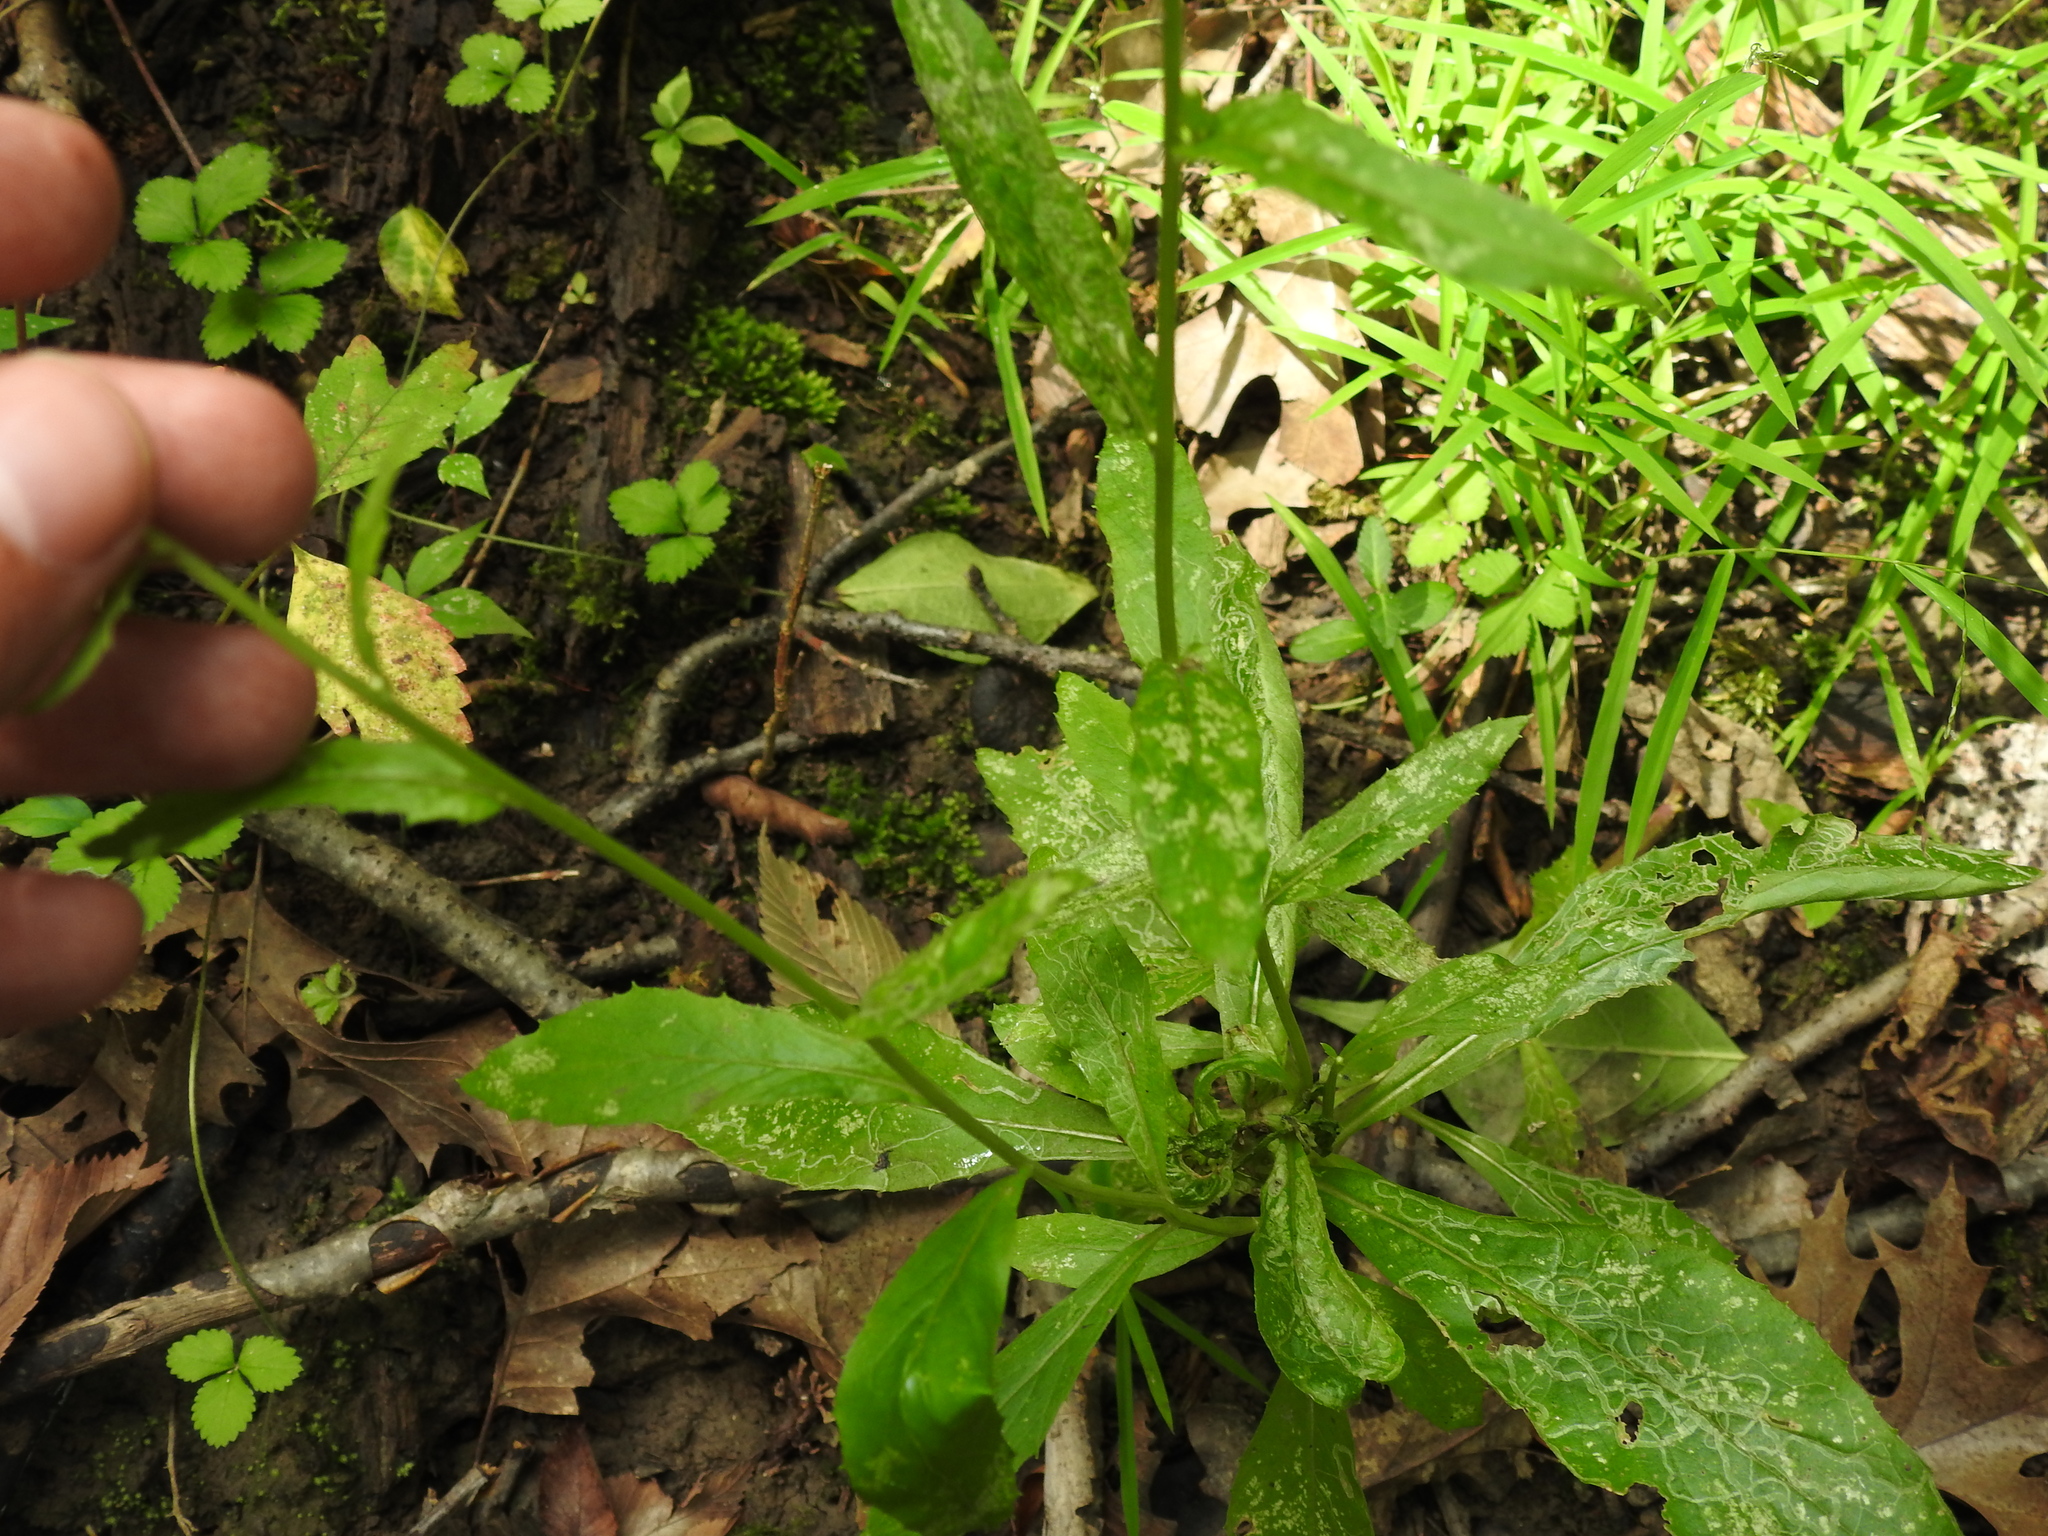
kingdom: Plantae
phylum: Tracheophyta
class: Magnoliopsida
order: Asterales
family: Asteraceae
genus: Erechtites
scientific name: Erechtites hieraciifolius
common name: American burnweed
